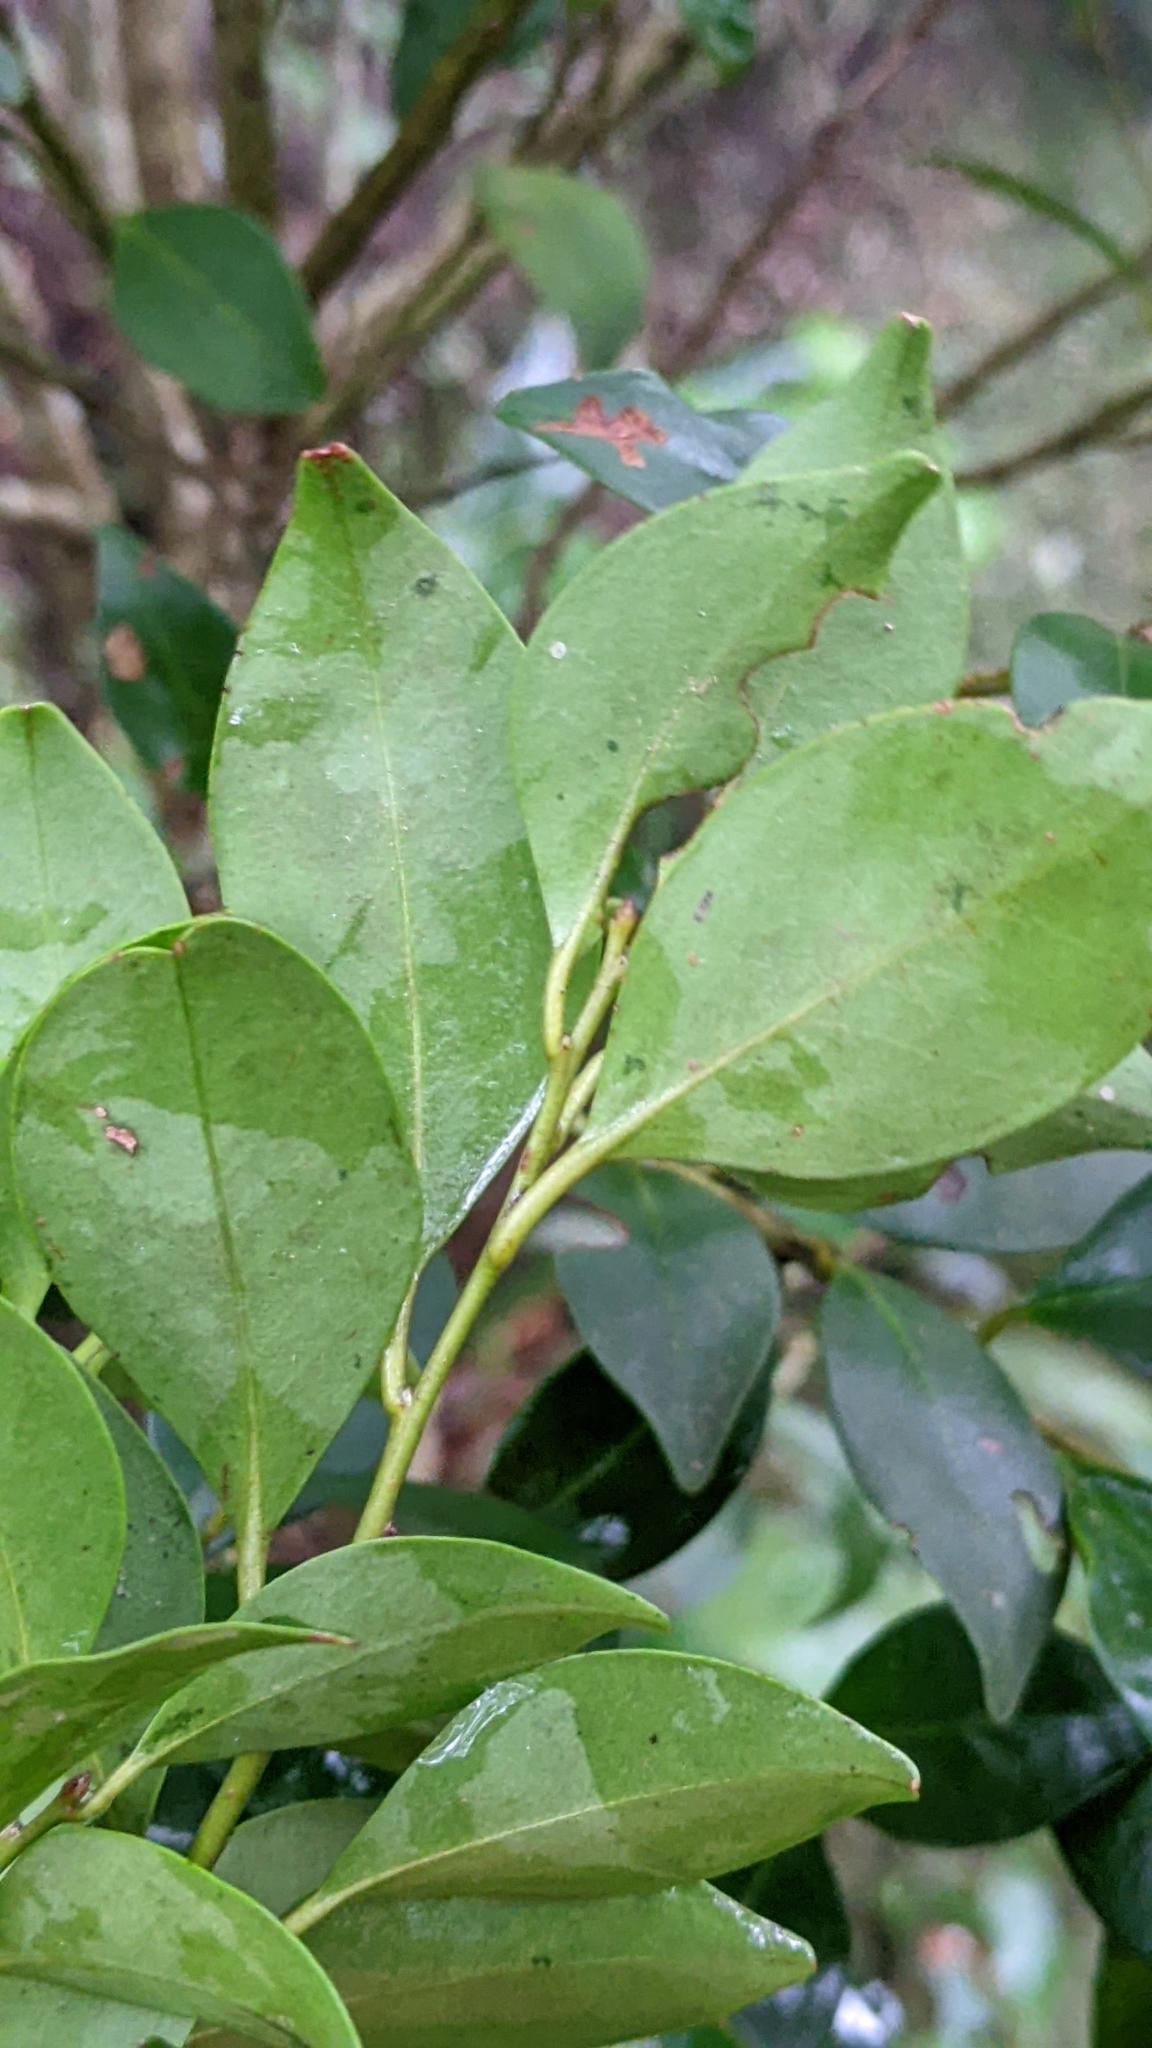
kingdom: Plantae
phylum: Tracheophyta
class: Magnoliopsida
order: Aquifoliales
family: Aquifoliaceae
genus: Ilex
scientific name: Ilex hayataiana
